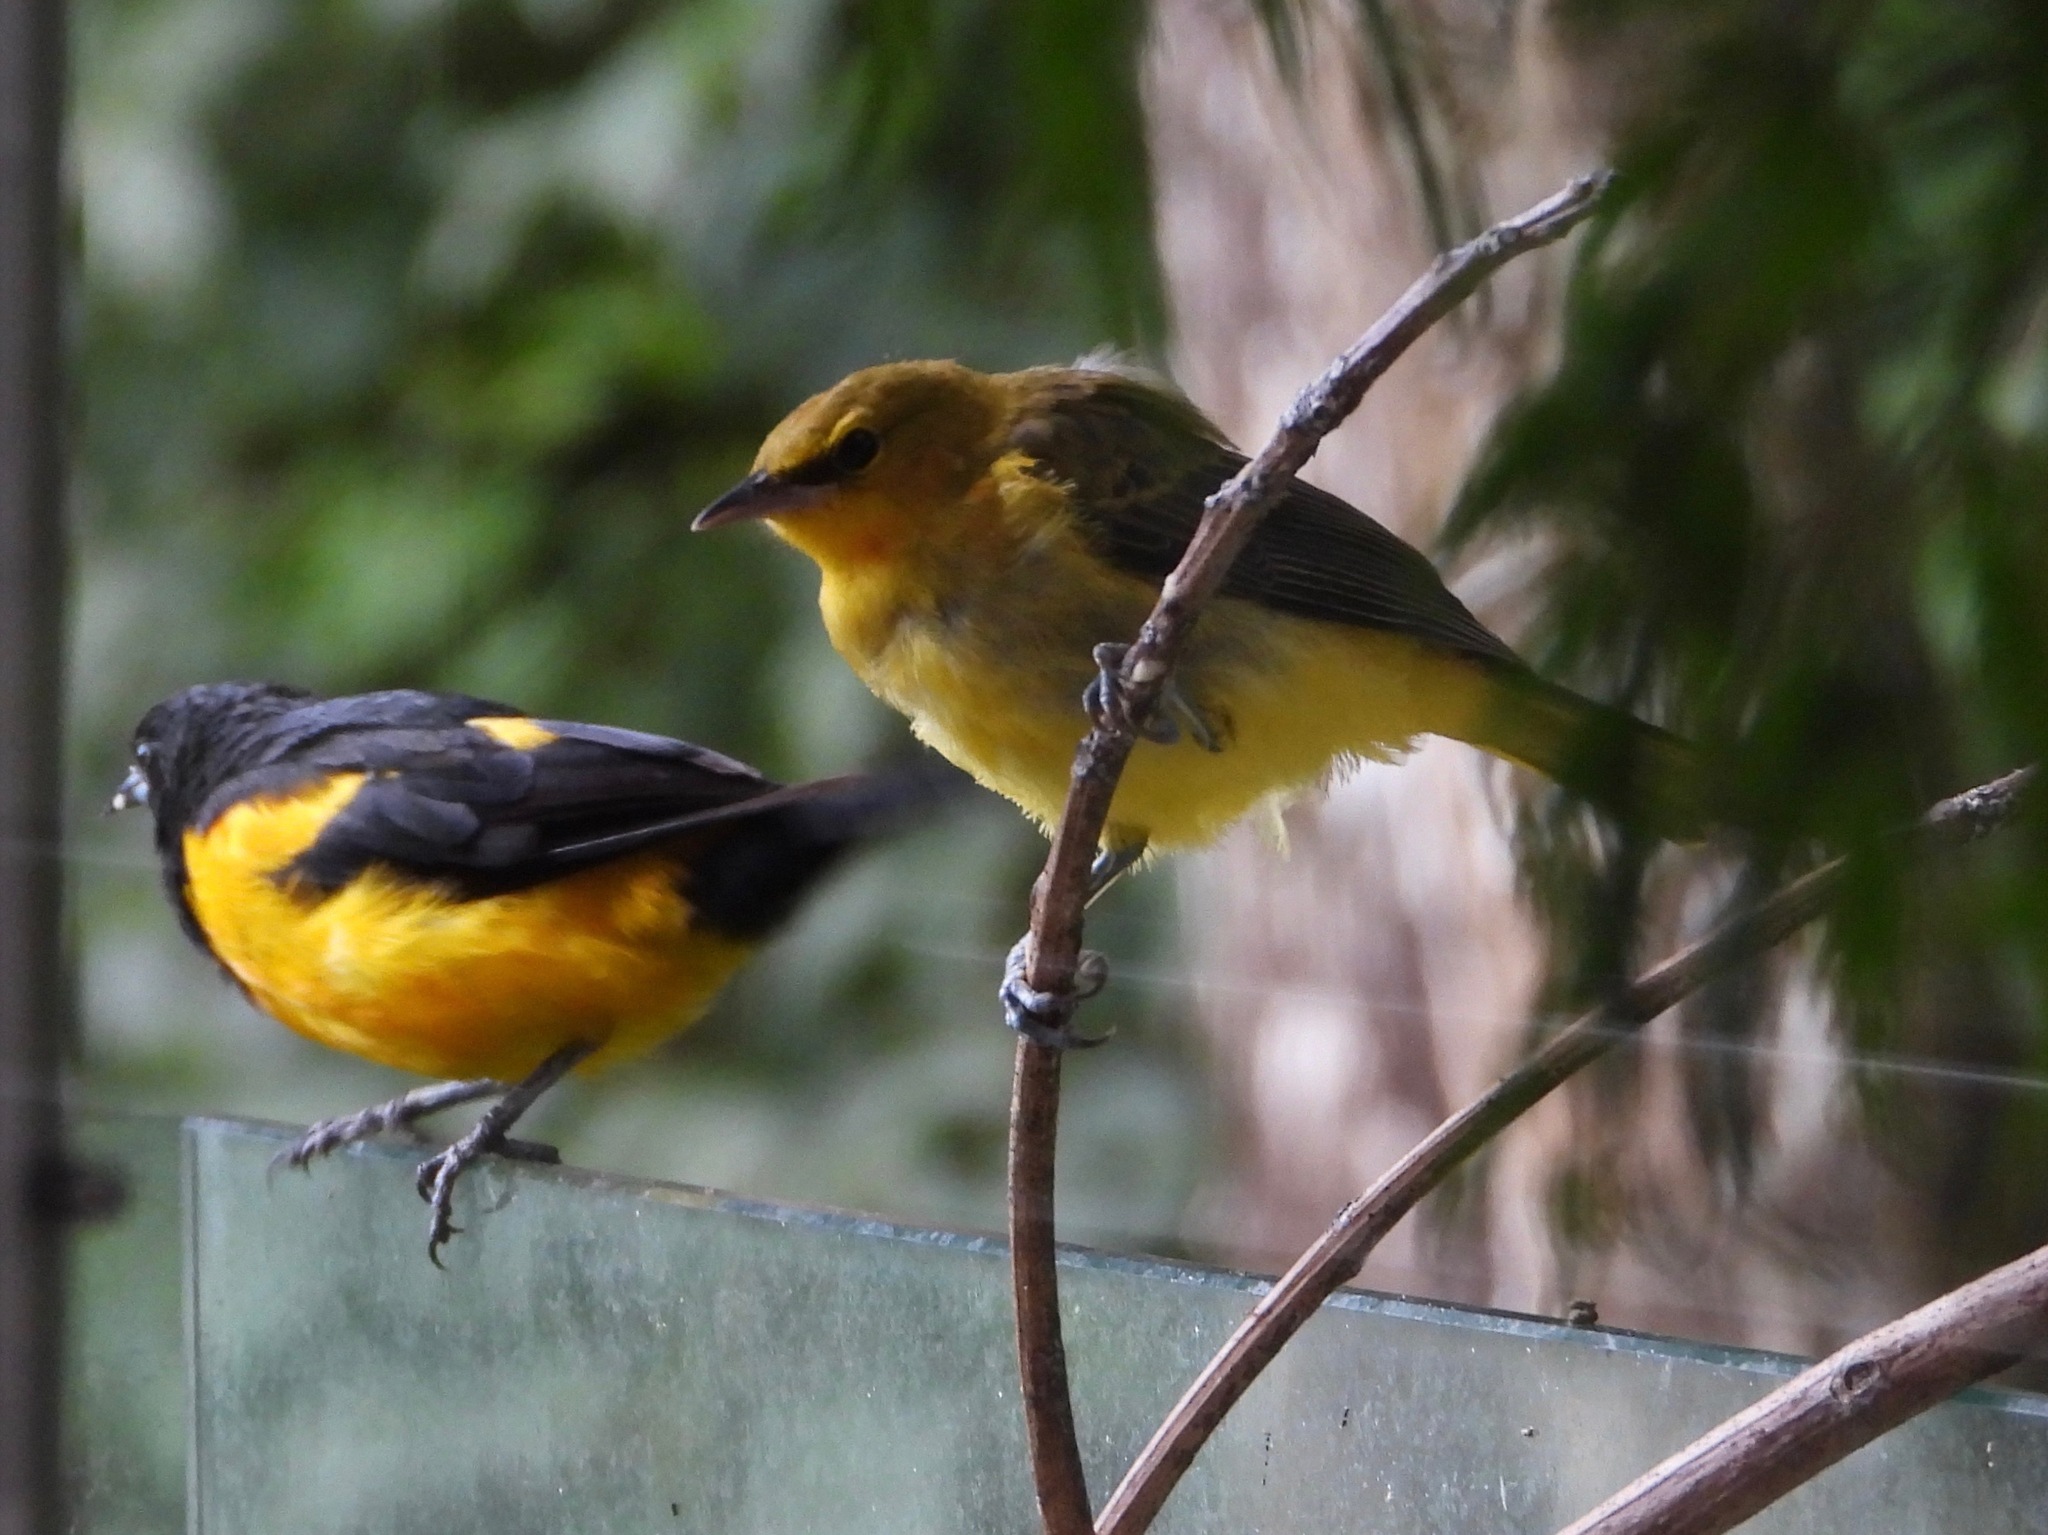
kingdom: Animalia
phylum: Chordata
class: Aves
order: Passeriformes
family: Icteridae
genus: Icterus
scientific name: Icterus wagleri
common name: Black-vented oriole
